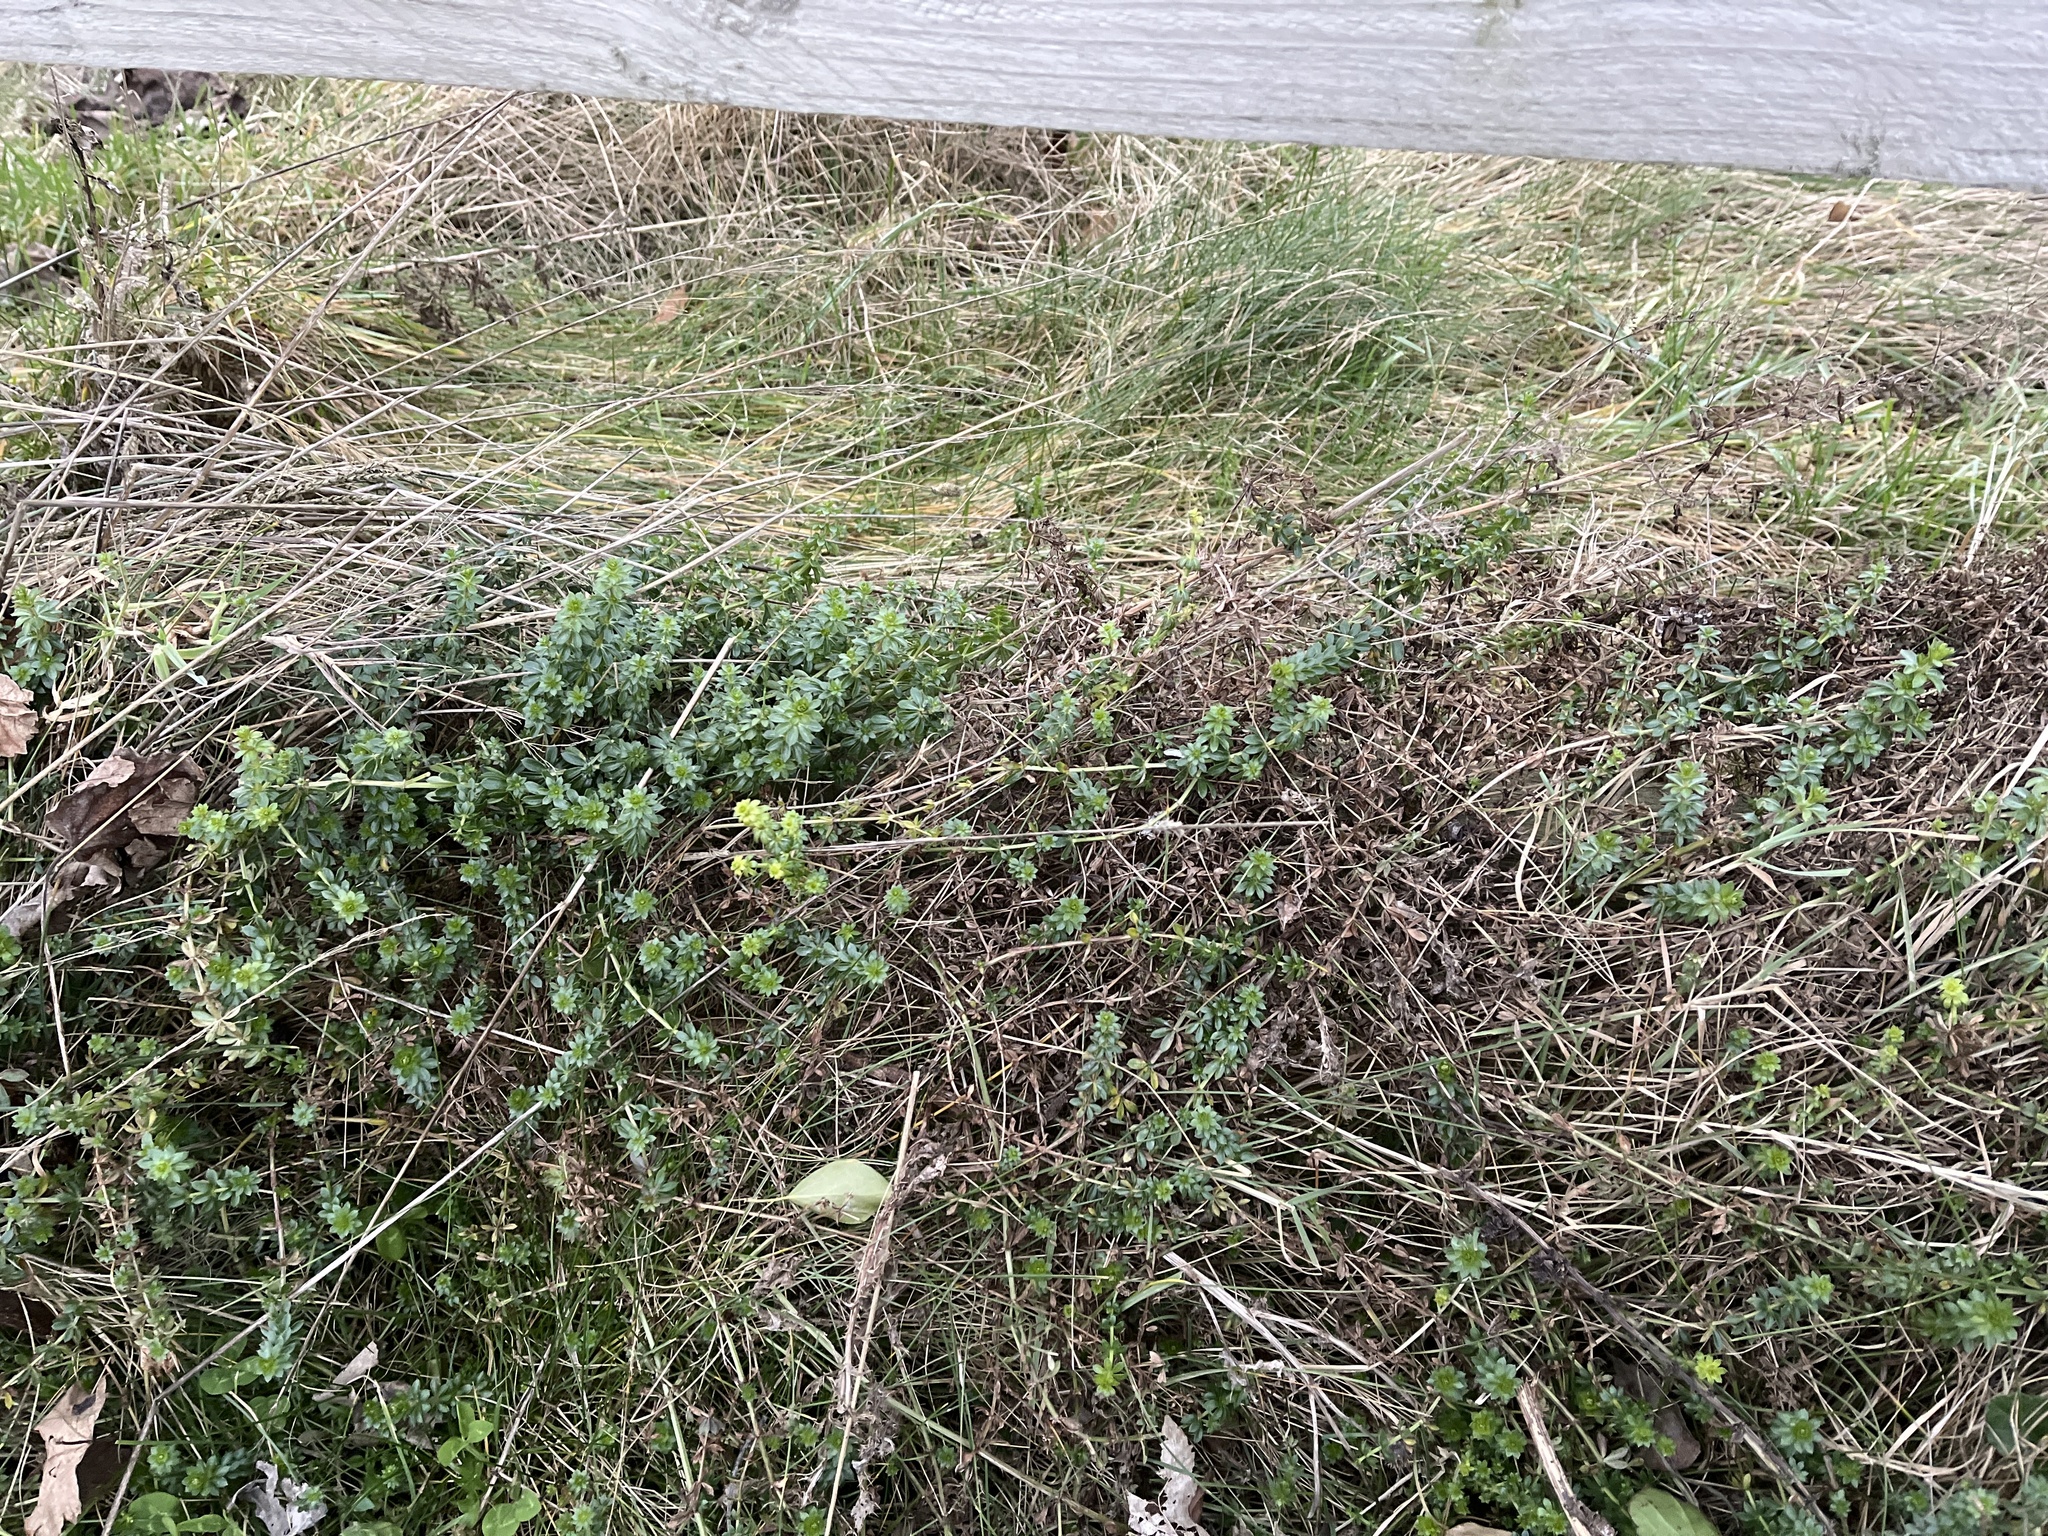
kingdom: Plantae
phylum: Tracheophyta
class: Magnoliopsida
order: Gentianales
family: Rubiaceae
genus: Galium
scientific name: Galium mollugo
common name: Hedge bedstraw
